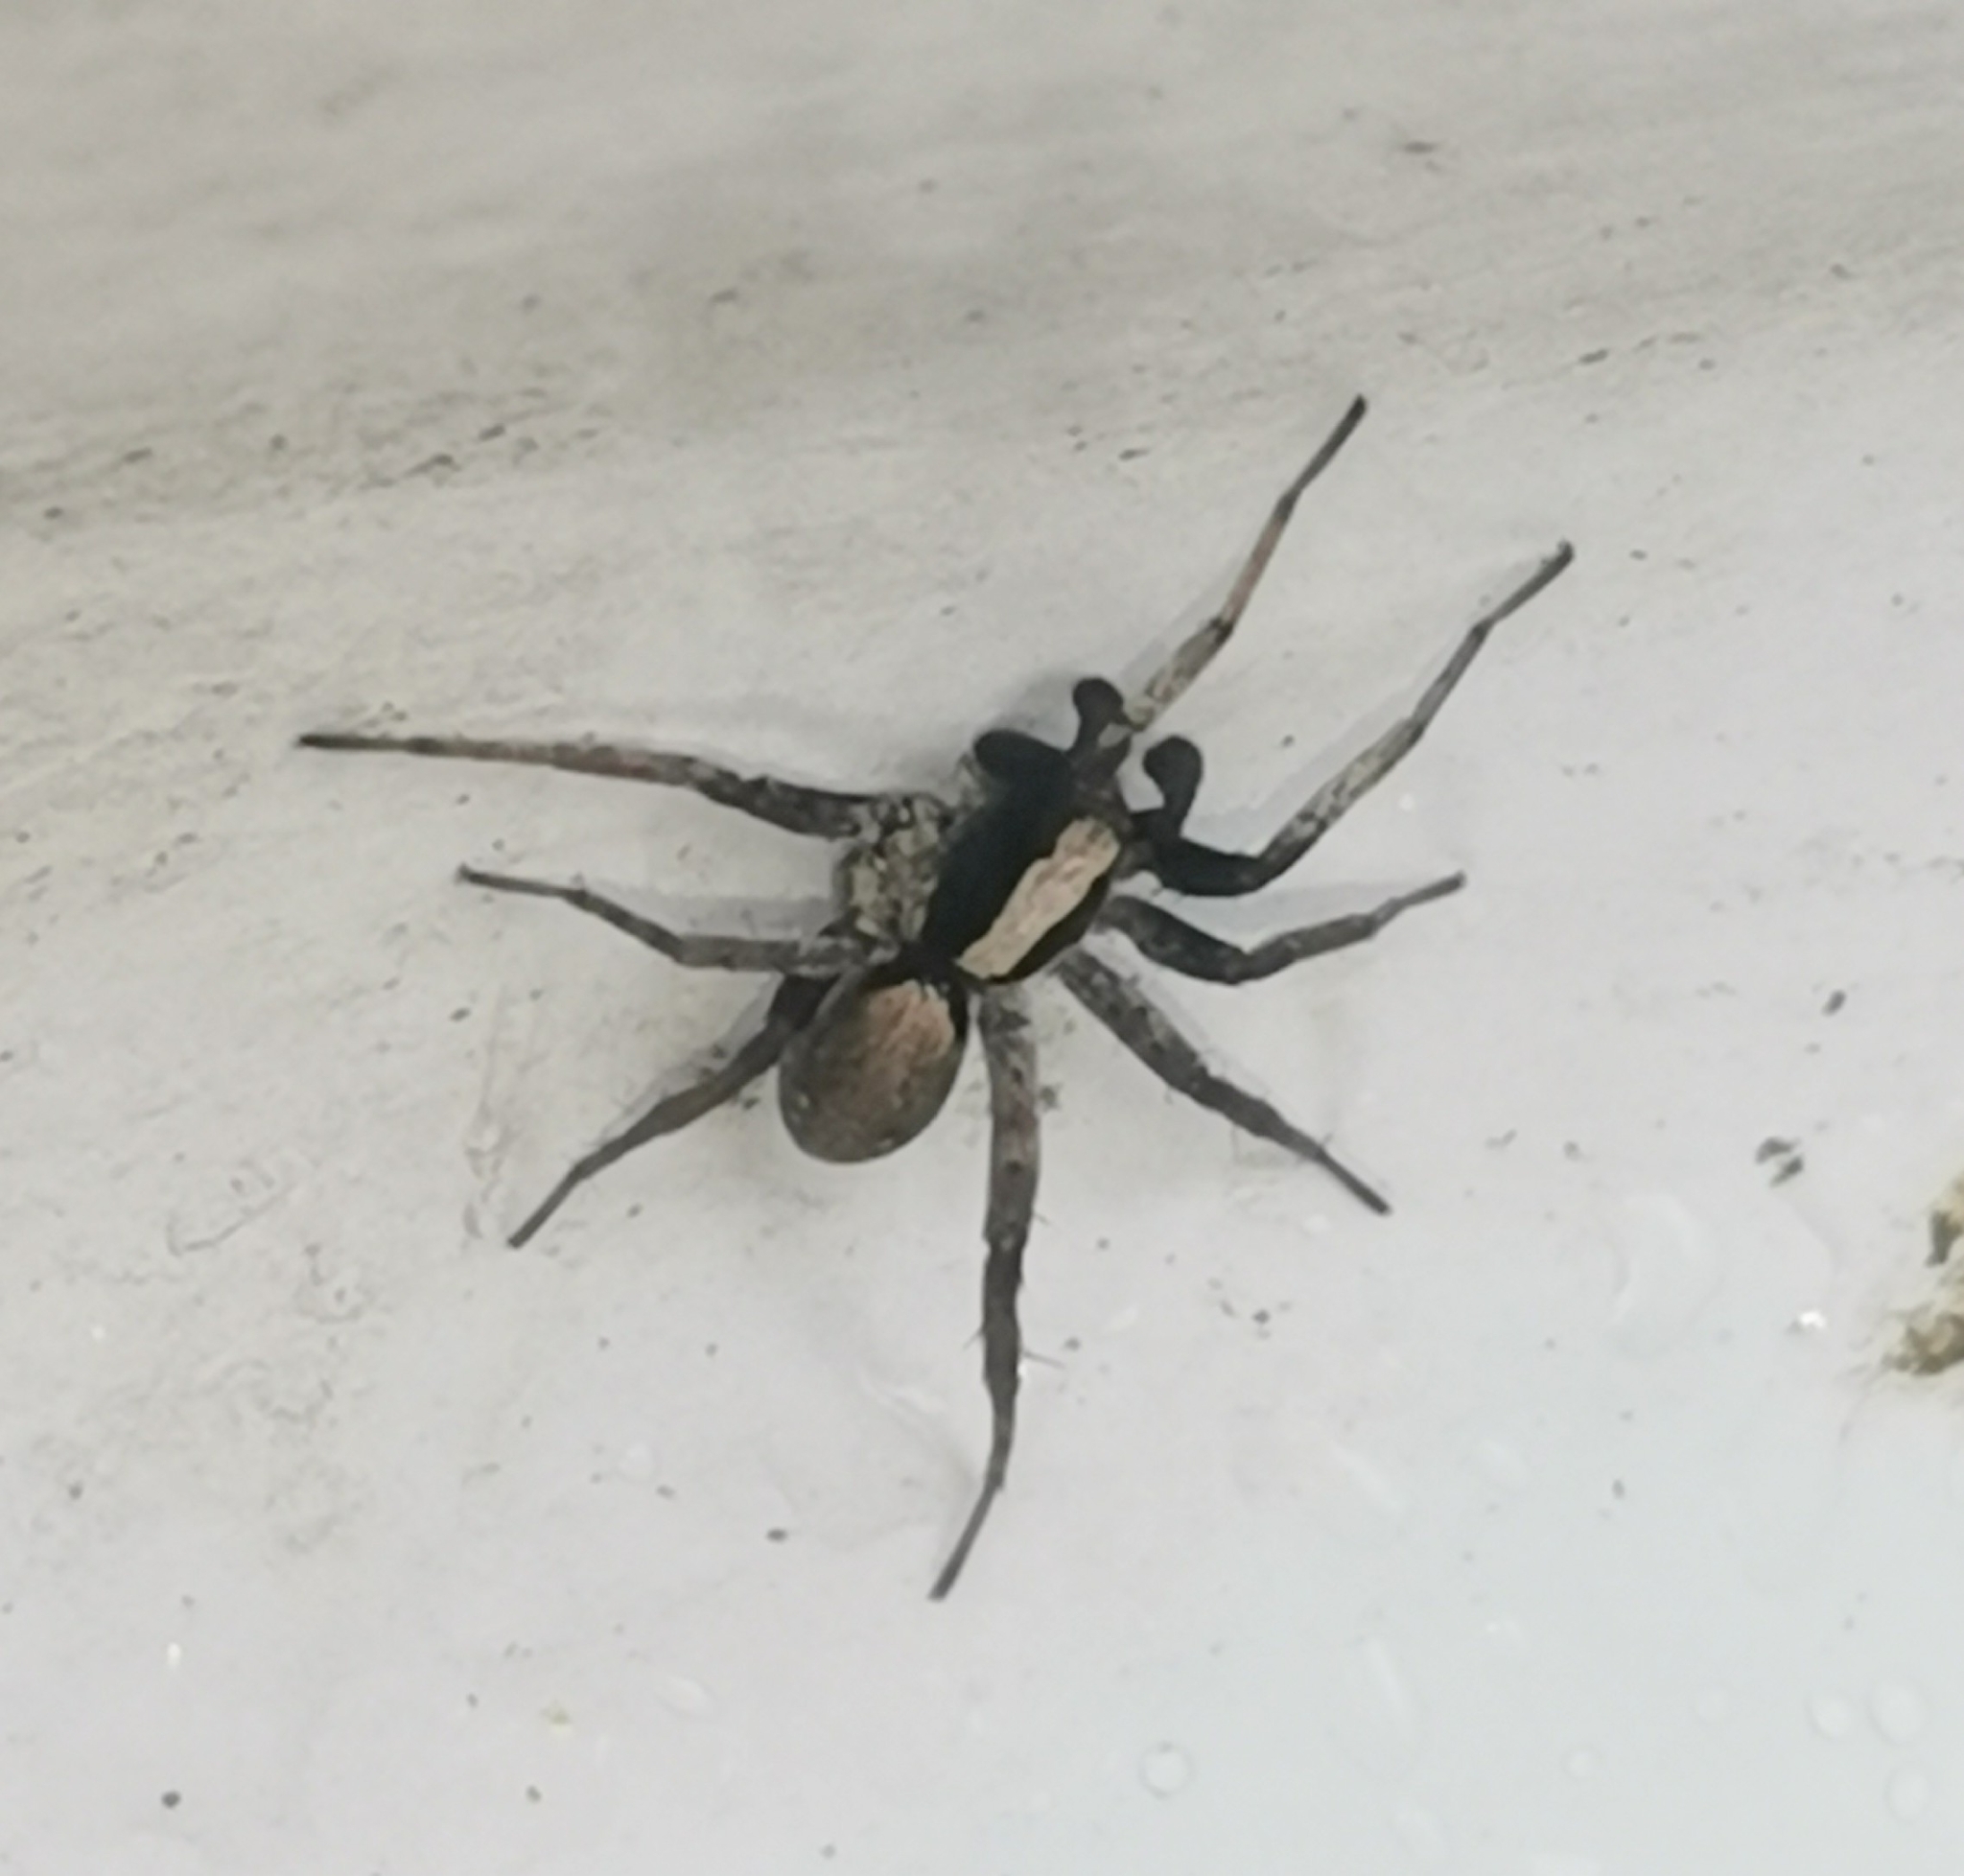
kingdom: Animalia
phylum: Arthropoda
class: Arachnida
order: Araneae
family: Lycosidae
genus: Xerolycosa
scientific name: Xerolycosa nemoralis
